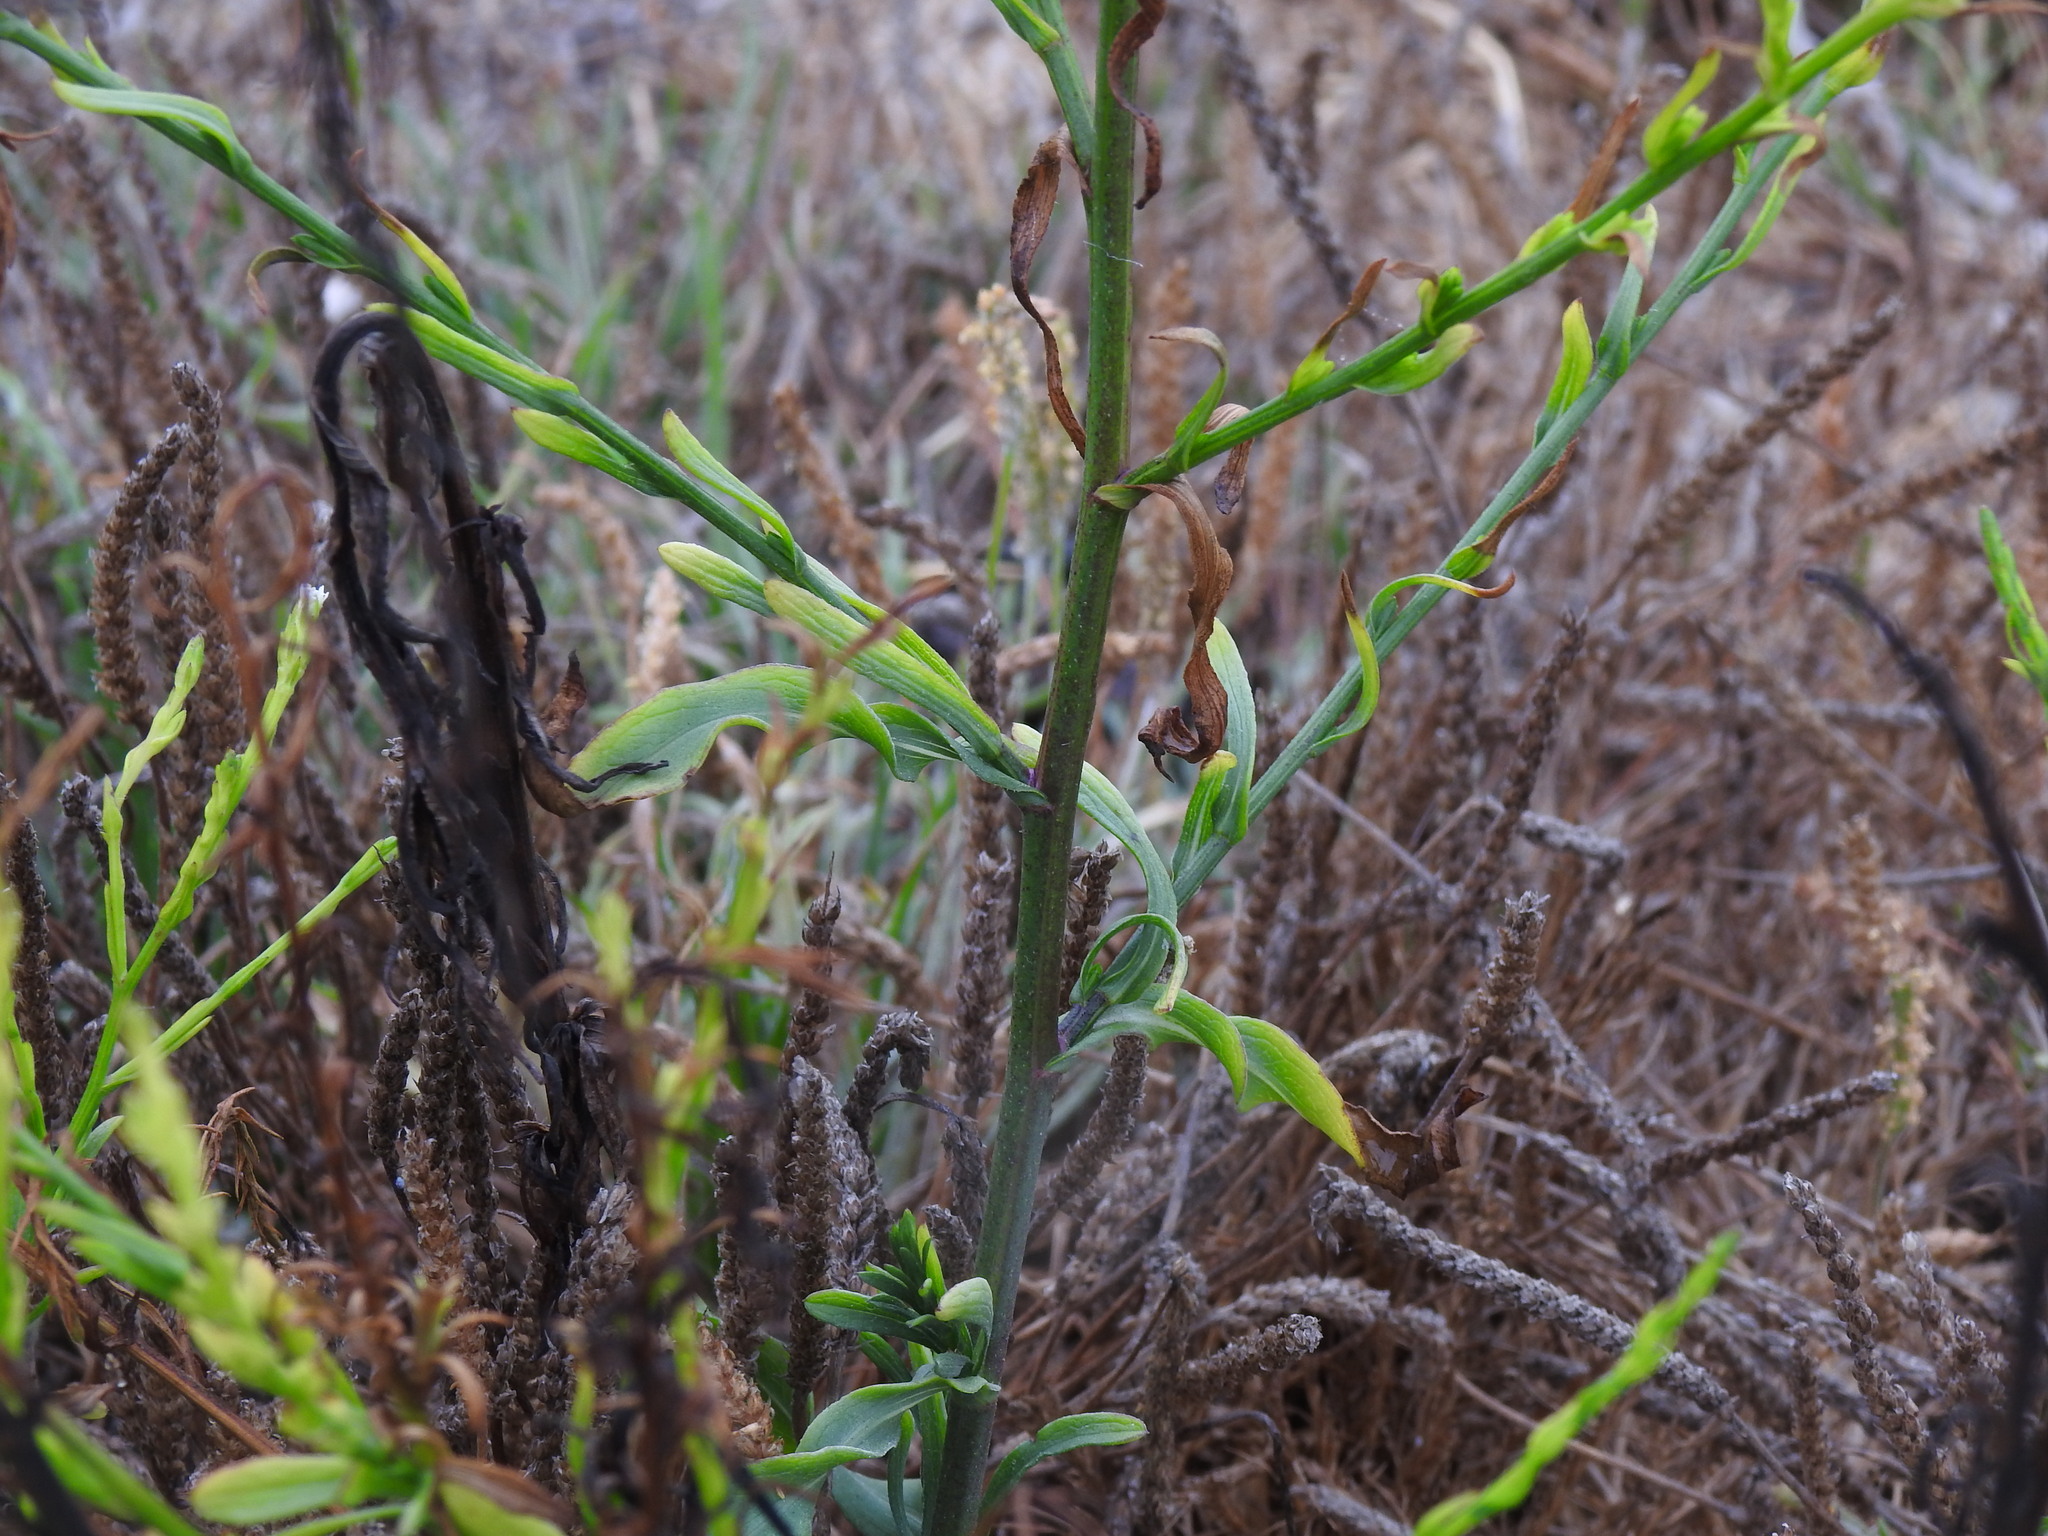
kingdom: Plantae
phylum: Tracheophyta
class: Magnoliopsida
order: Asterales
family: Asteraceae
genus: Symphyotrichum
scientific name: Symphyotrichum squamatum
